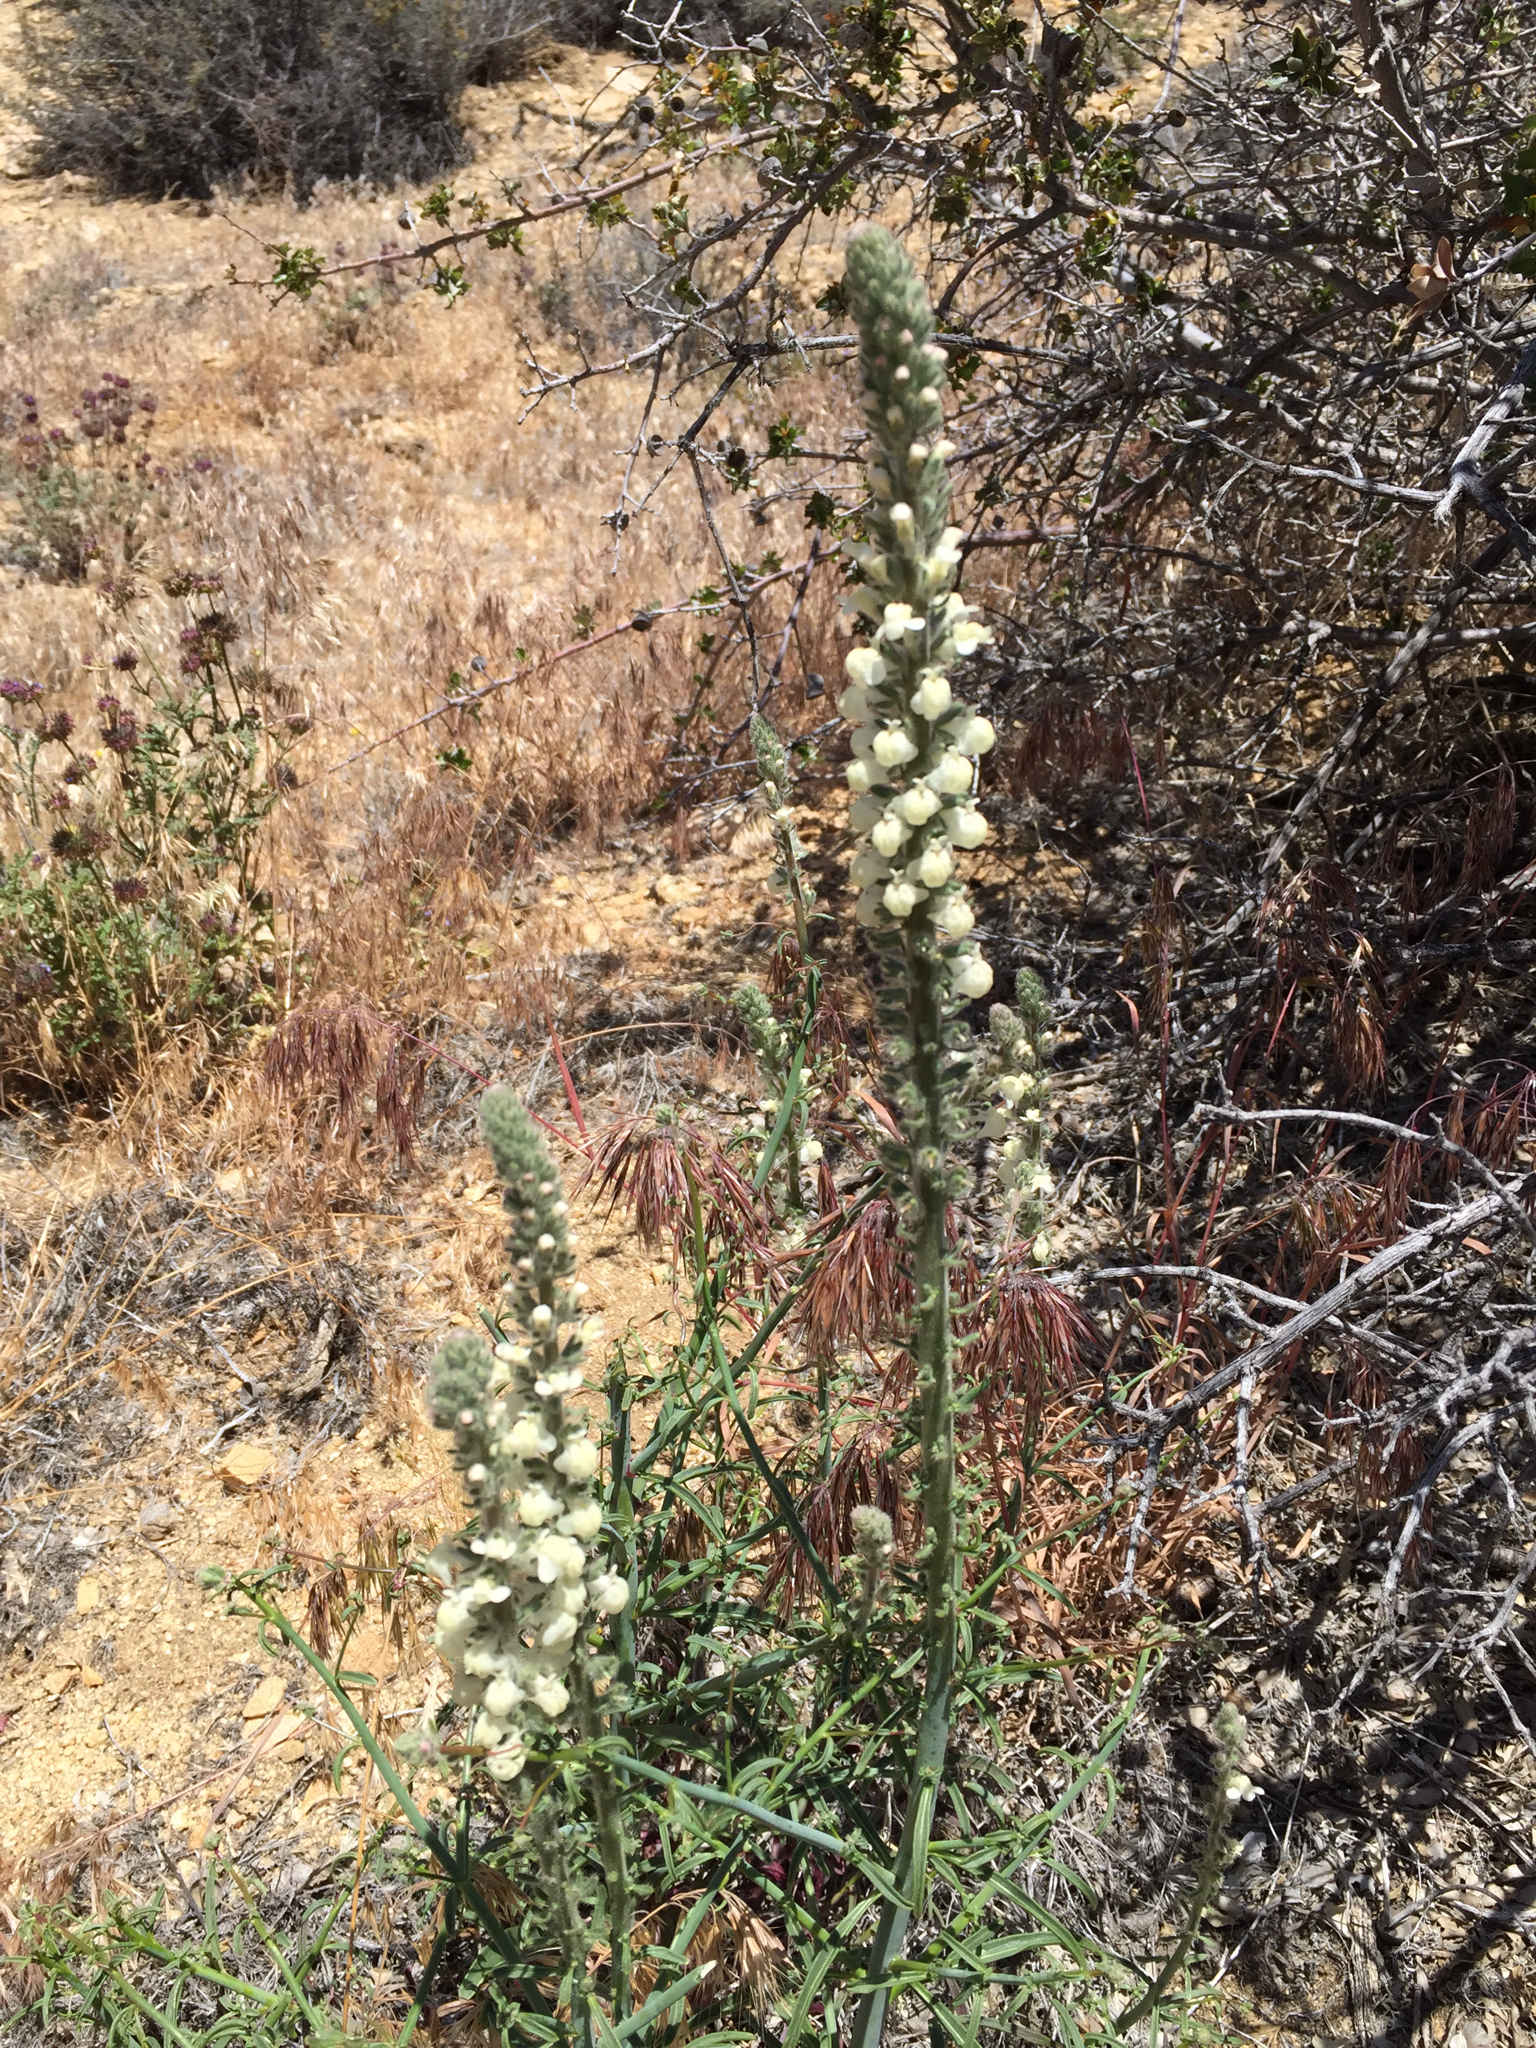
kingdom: Plantae
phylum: Tracheophyta
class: Magnoliopsida
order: Lamiales
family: Plantaginaceae
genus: Sairocarpus
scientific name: Sairocarpus coulterianus
